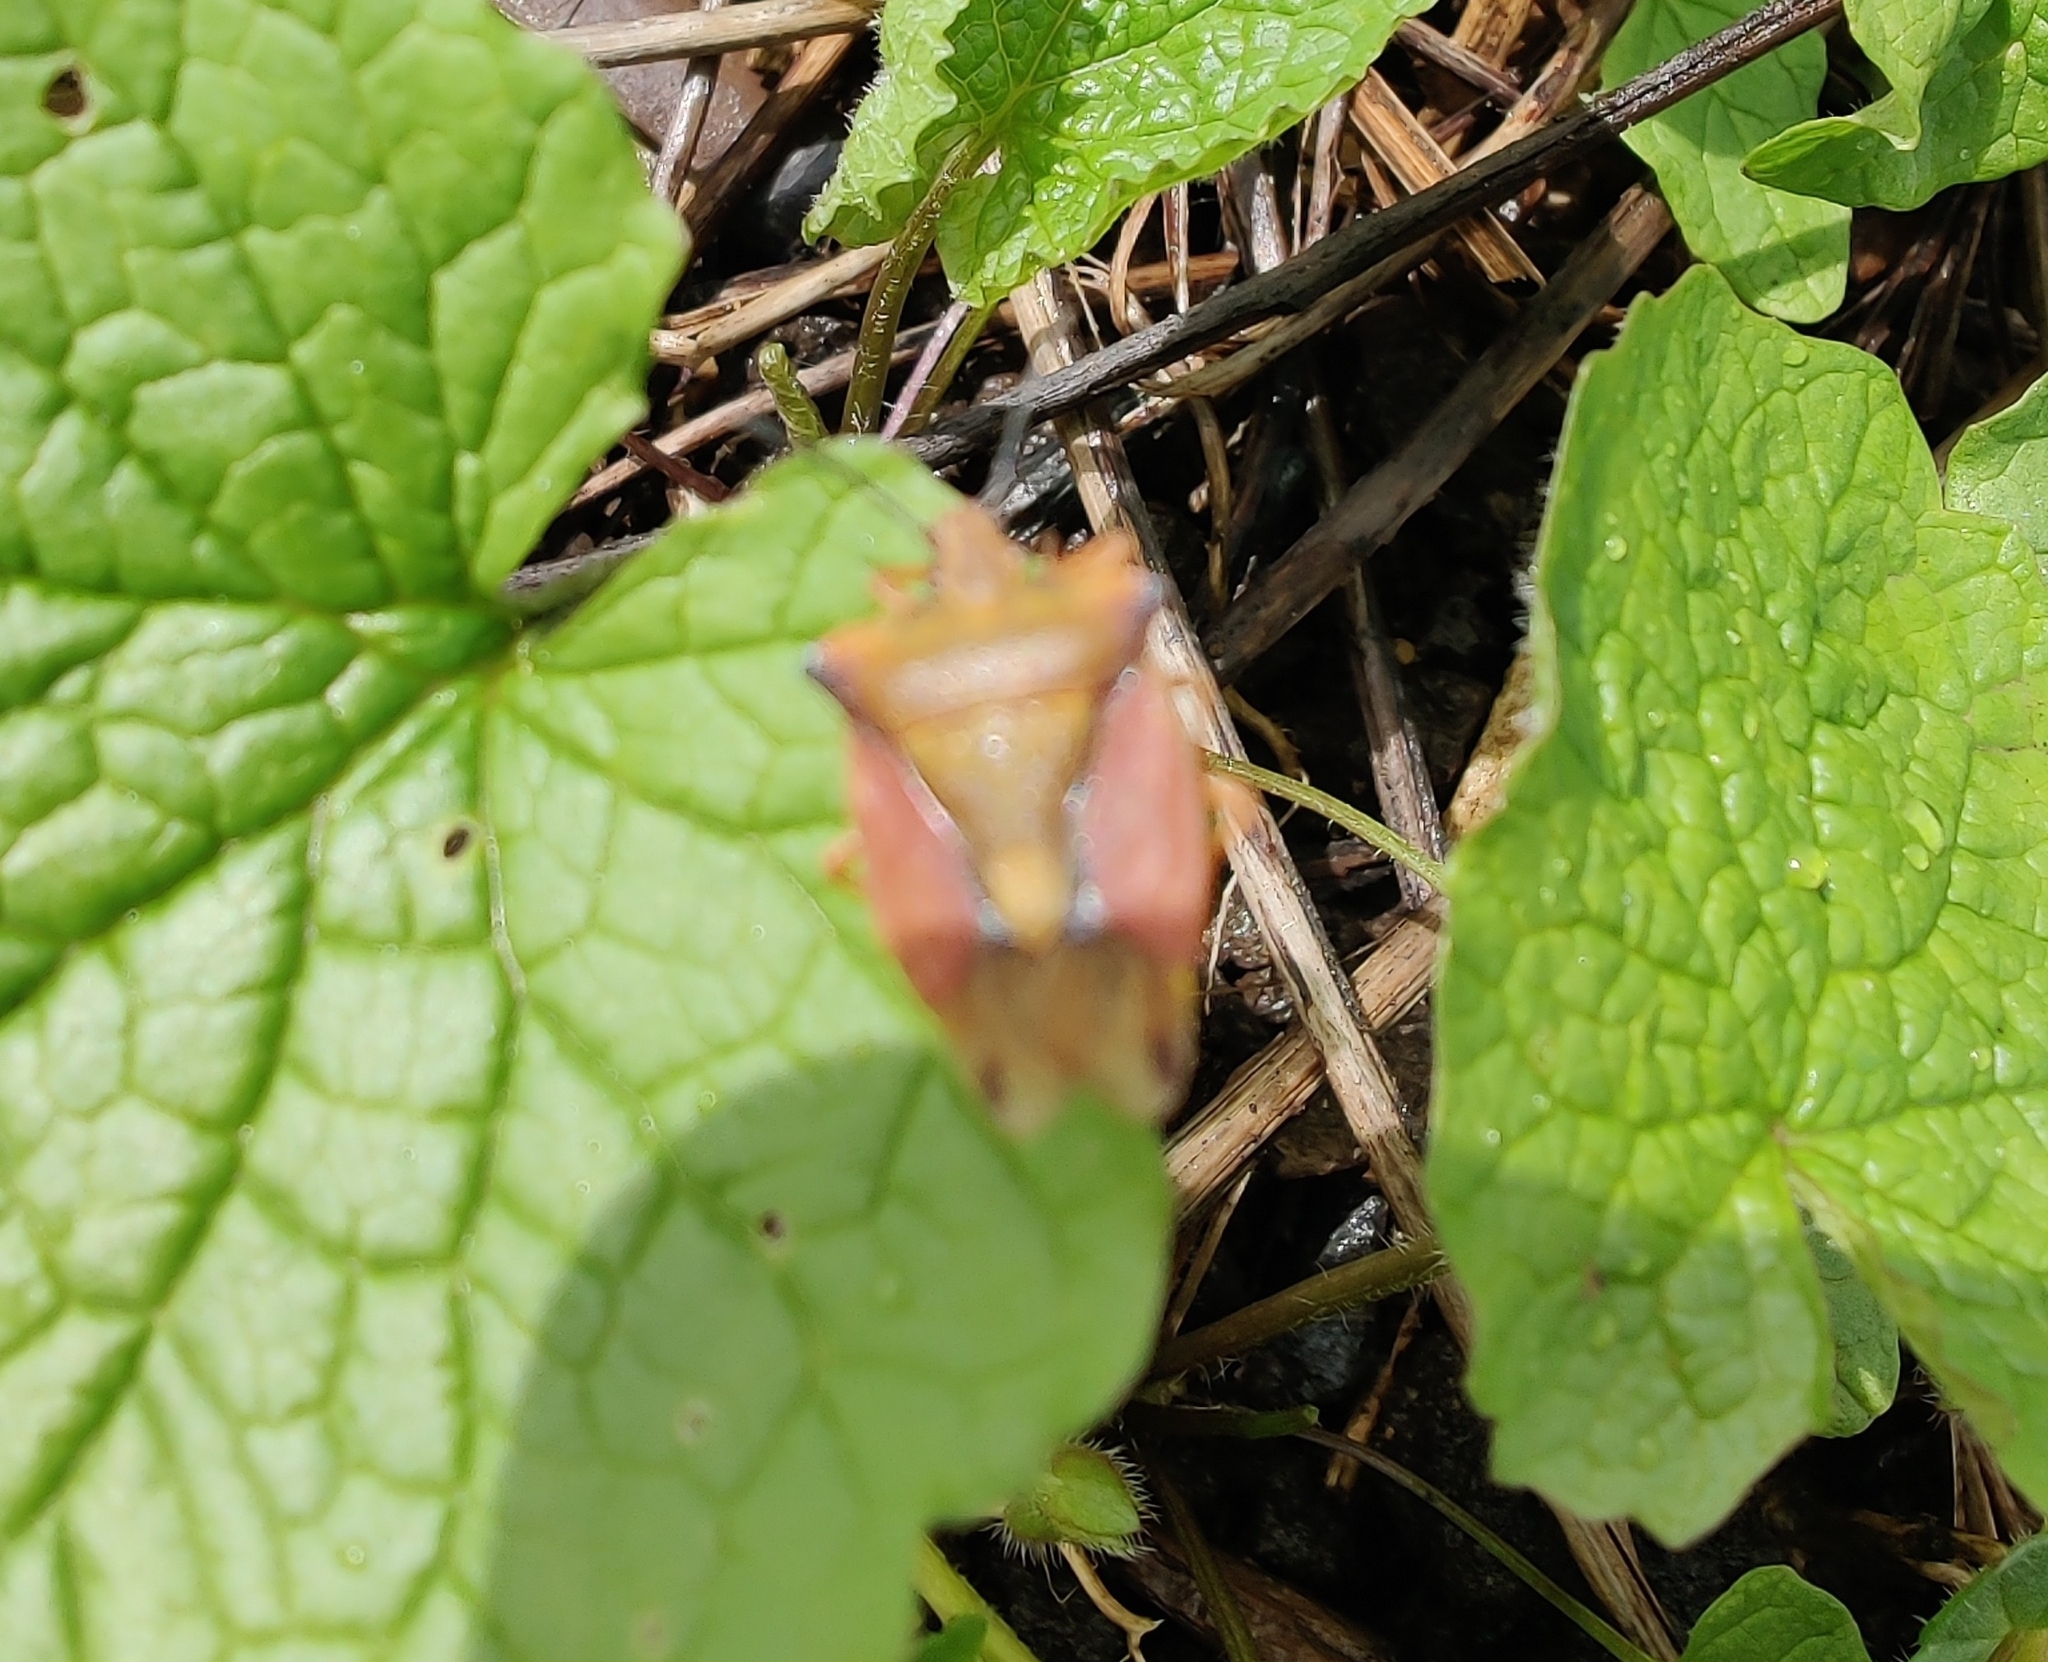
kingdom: Animalia
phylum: Arthropoda
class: Insecta
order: Hemiptera
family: Pentatomidae
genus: Carpocoris
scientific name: Carpocoris fuscispinus
